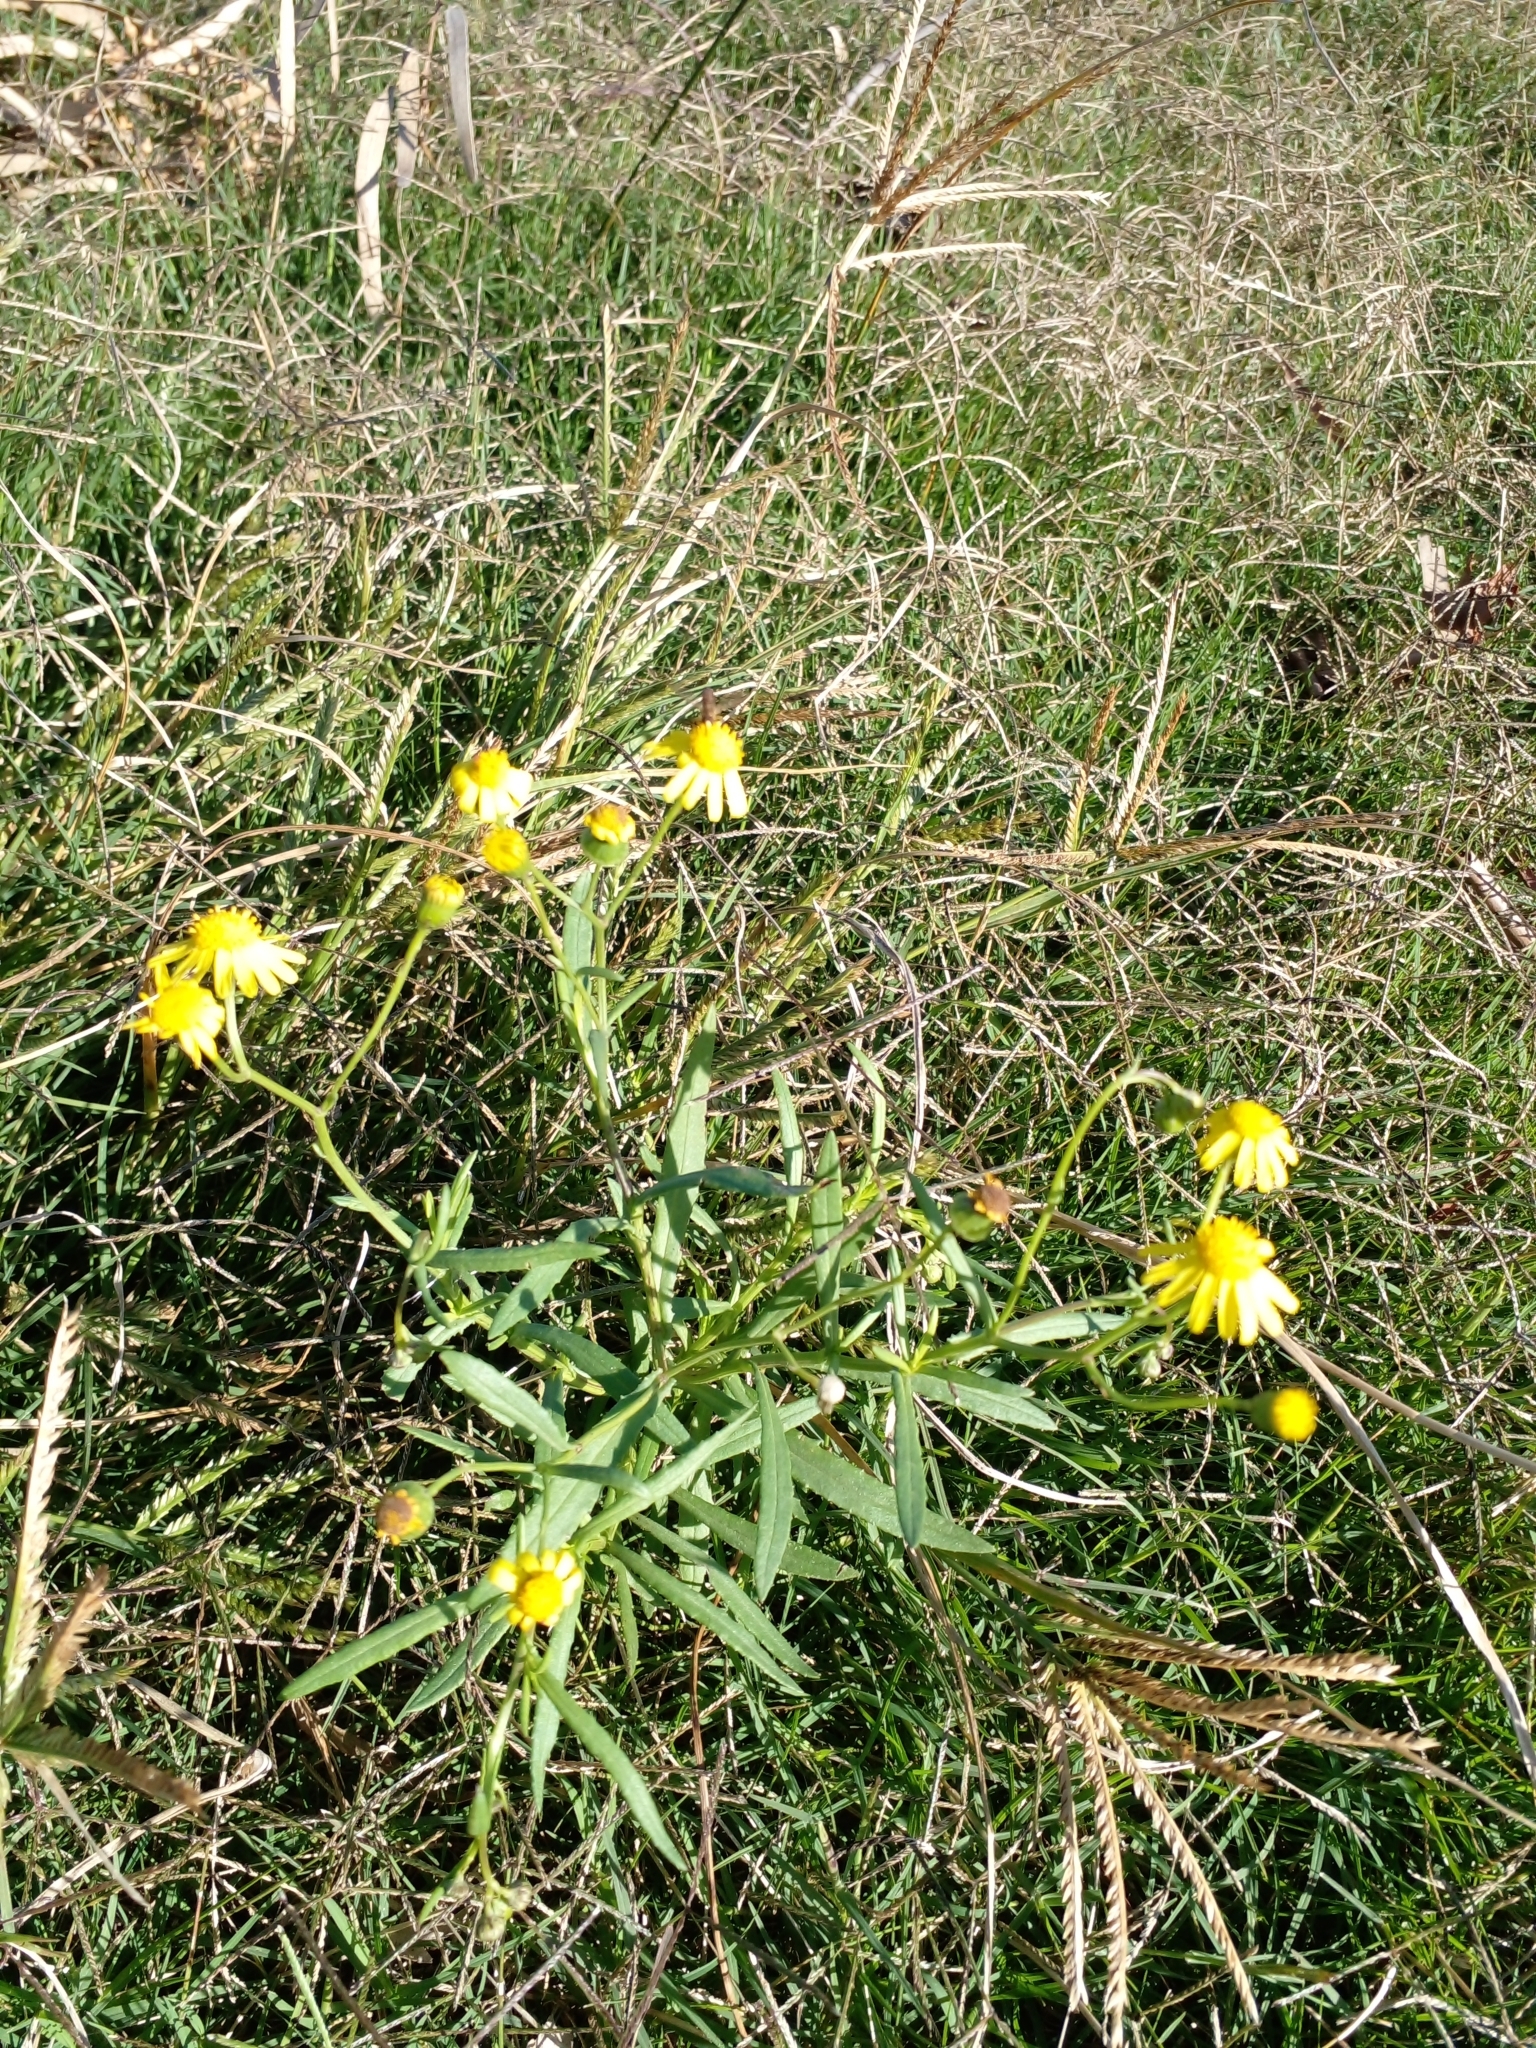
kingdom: Plantae
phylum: Tracheophyta
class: Magnoliopsida
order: Asterales
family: Asteraceae
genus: Senecio
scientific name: Senecio madagascariensis
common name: Madagascar ragwort
